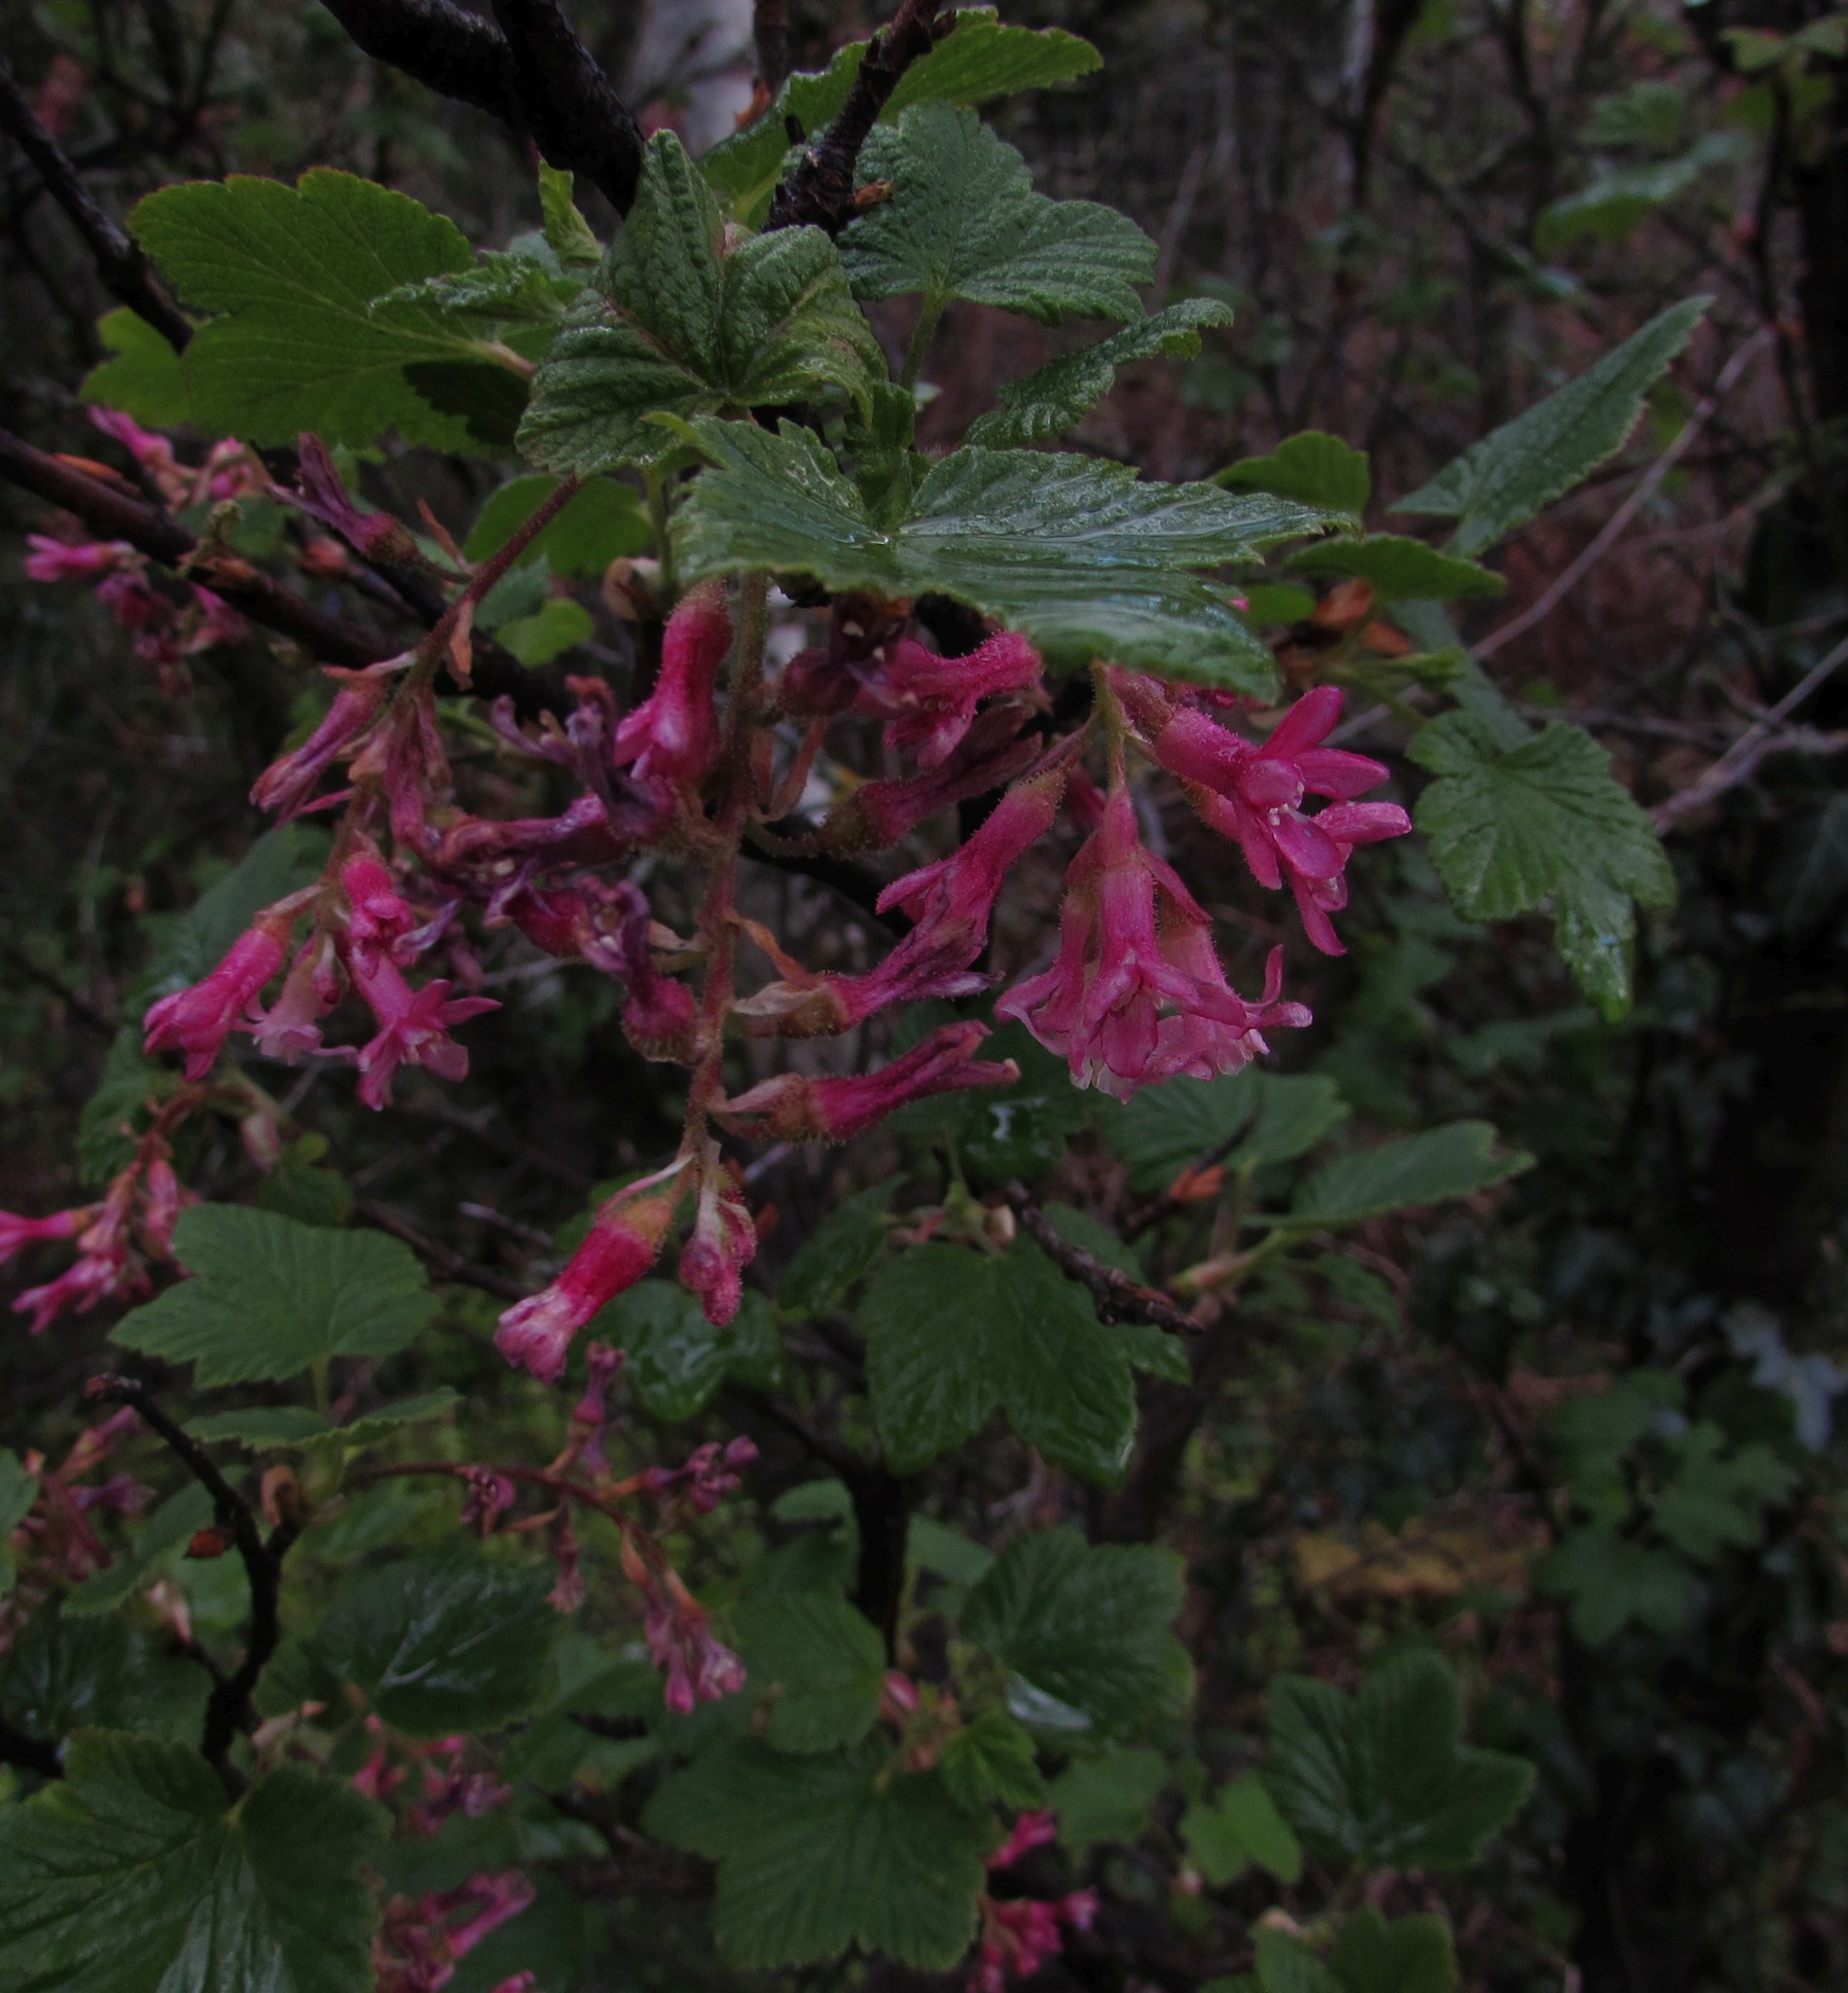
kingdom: Plantae
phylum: Tracheophyta
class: Magnoliopsida
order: Saxifragales
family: Grossulariaceae
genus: Ribes
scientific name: Ribes sanguineum
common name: Flowering currant
